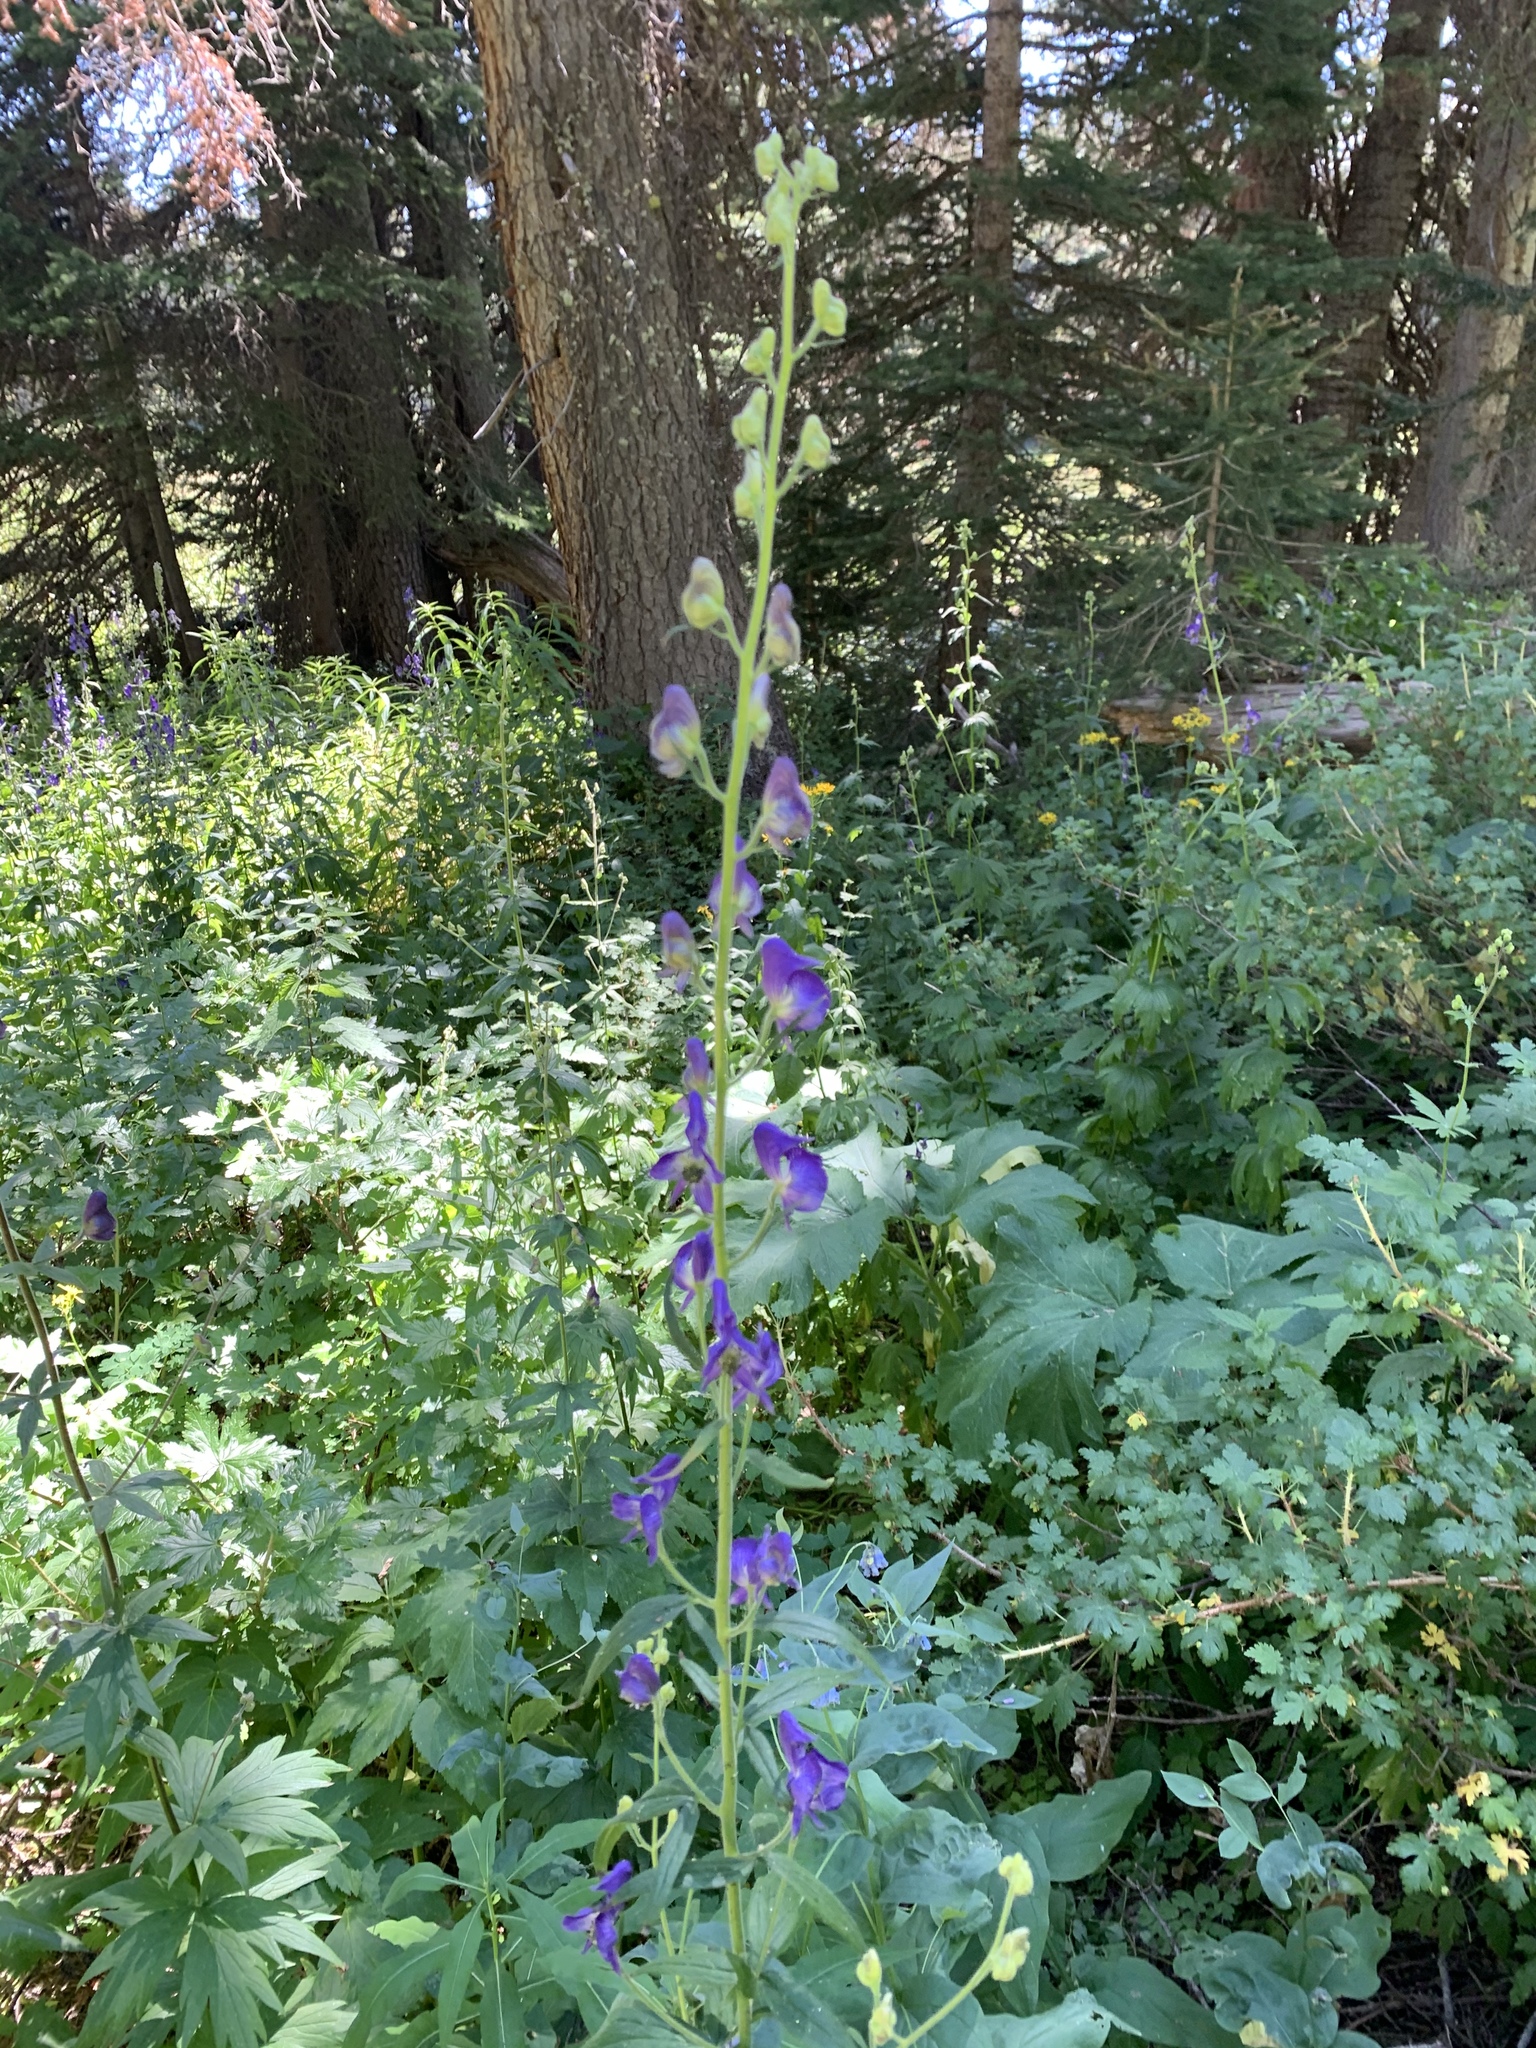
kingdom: Plantae
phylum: Tracheophyta
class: Magnoliopsida
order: Ranunculales
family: Ranunculaceae
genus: Aconitum
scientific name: Aconitum columbianum
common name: Columbia aconite
